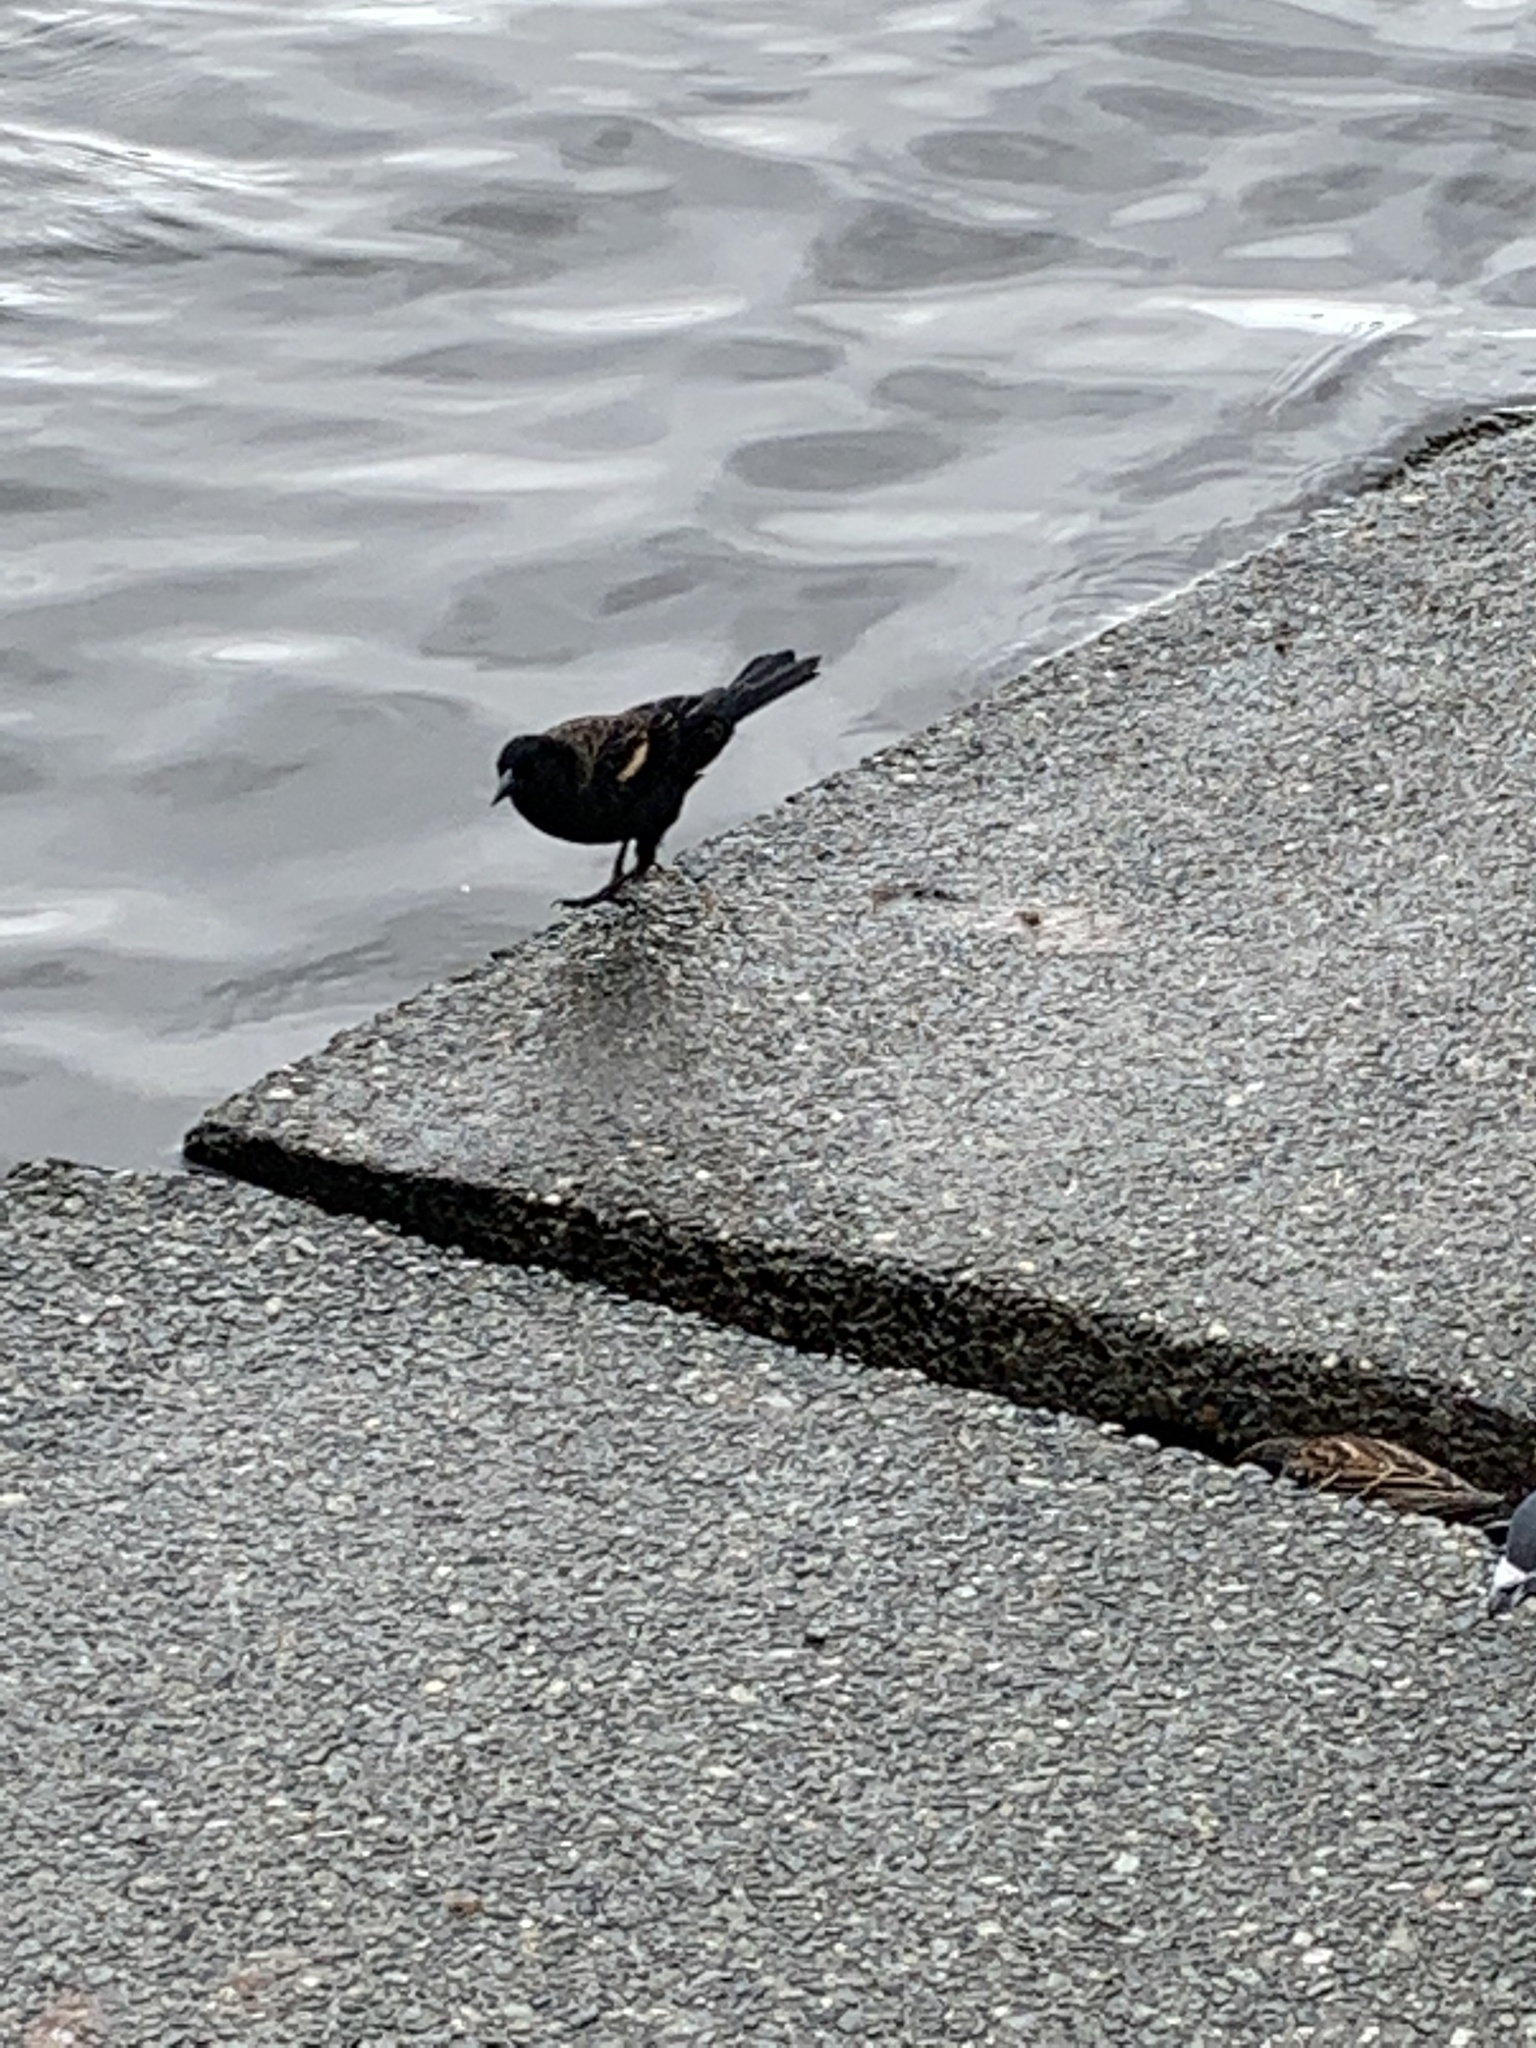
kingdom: Animalia
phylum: Chordata
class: Aves
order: Passeriformes
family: Icteridae
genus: Agelaius
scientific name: Agelaius phoeniceus
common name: Red-winged blackbird
